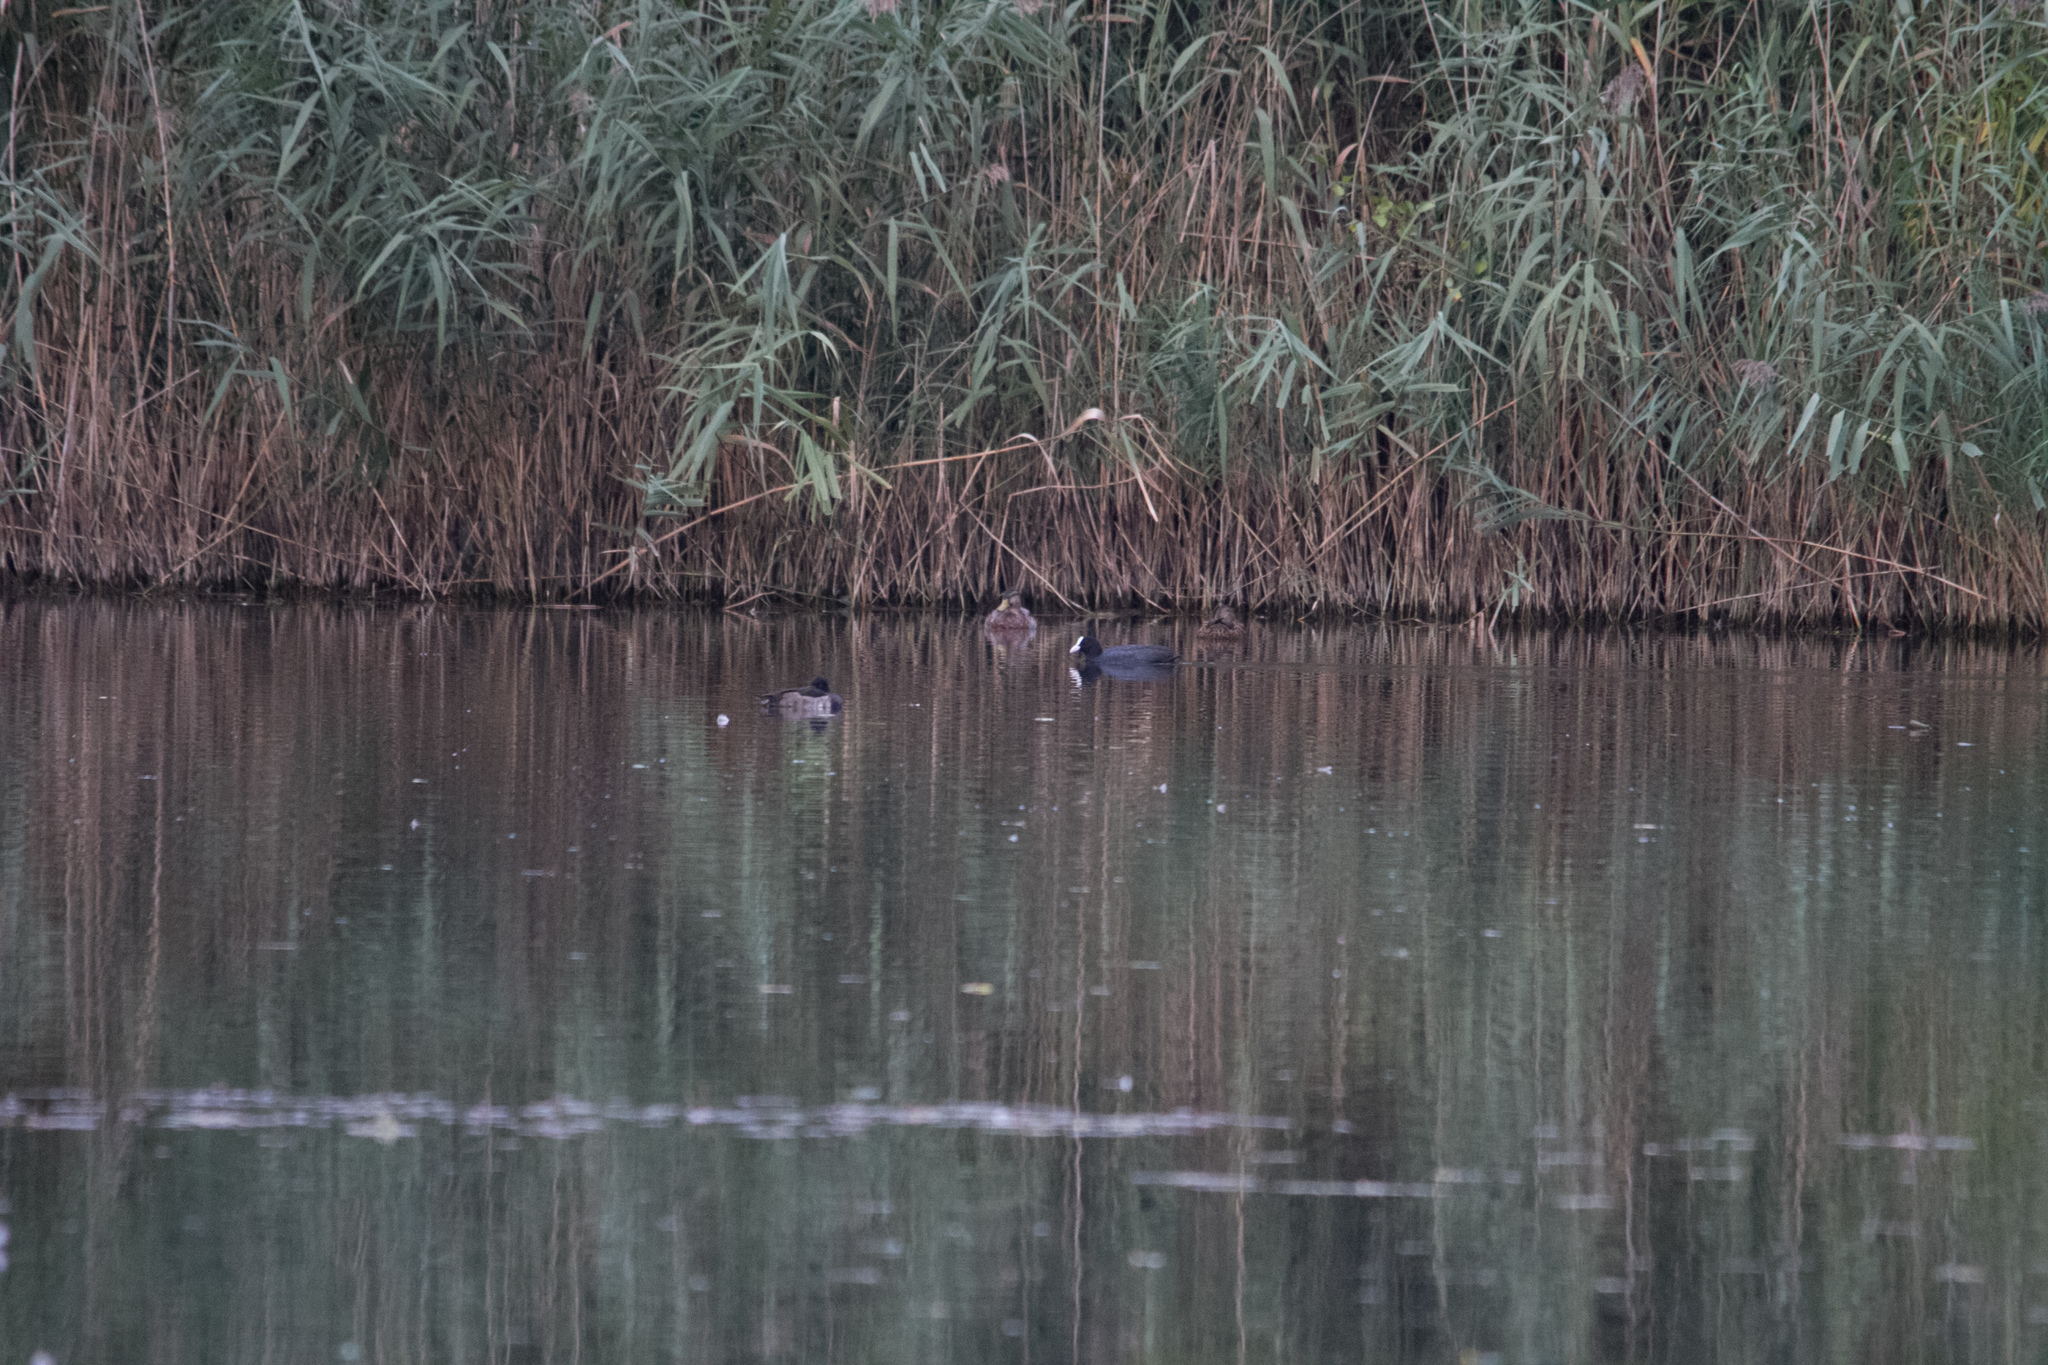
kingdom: Animalia
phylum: Chordata
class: Aves
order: Anseriformes
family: Anatidae
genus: Anas
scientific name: Anas platyrhynchos
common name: Mallard
